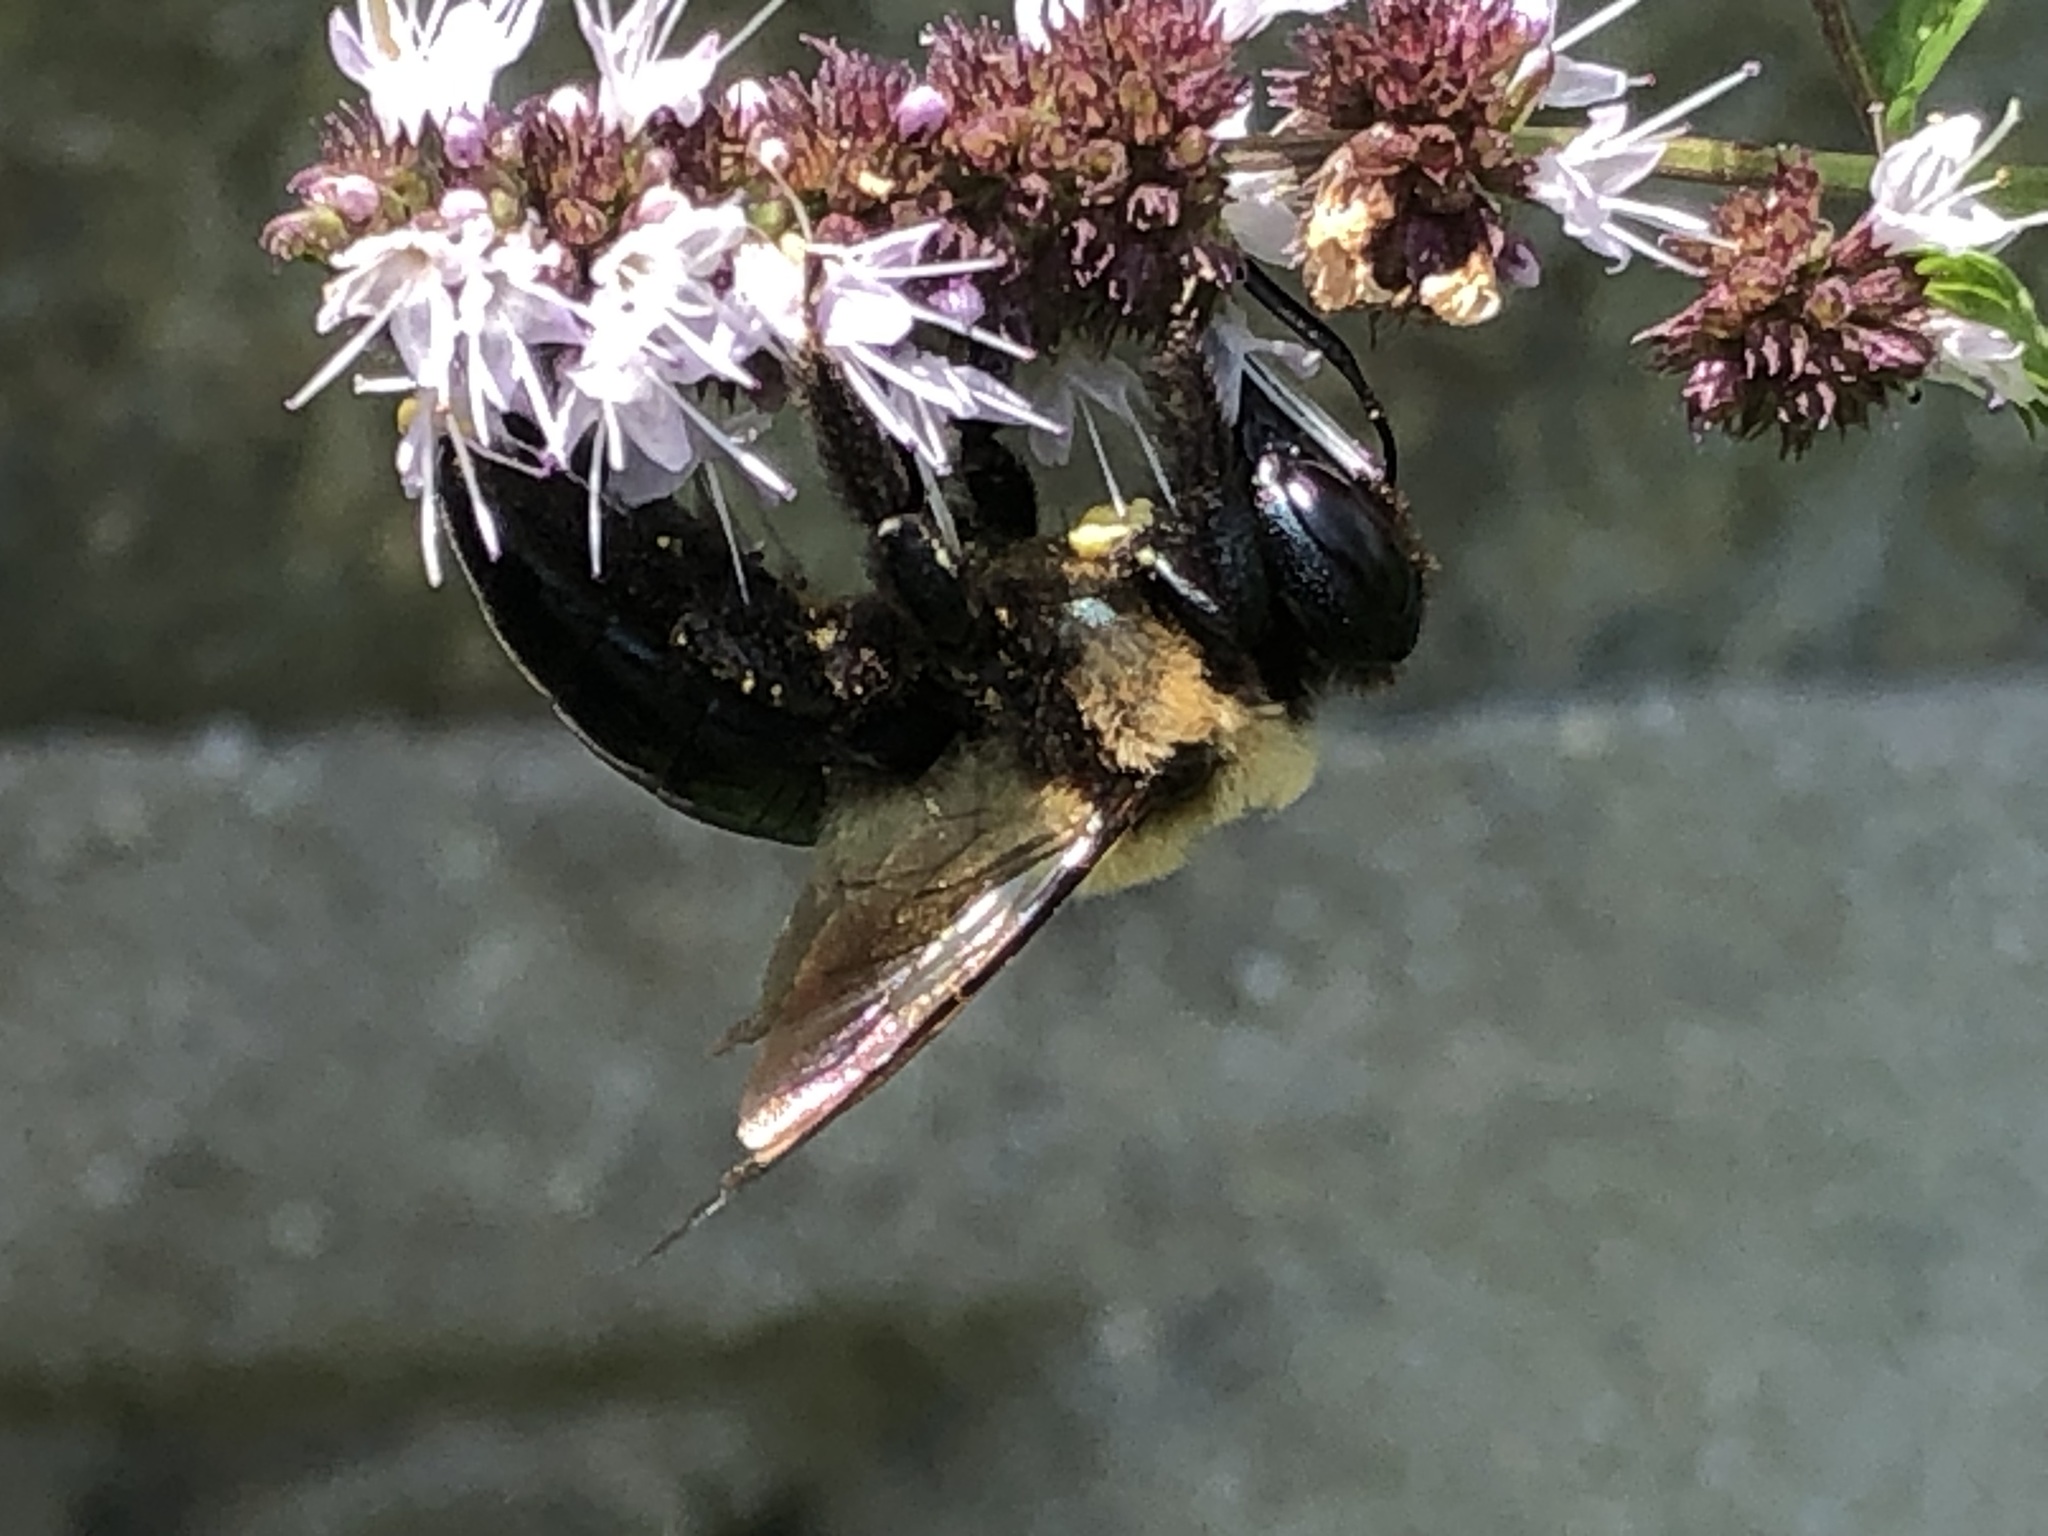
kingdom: Animalia
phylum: Arthropoda
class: Insecta
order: Hymenoptera
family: Apidae
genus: Xylocopa
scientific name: Xylocopa virginica
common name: Carpenter bee
